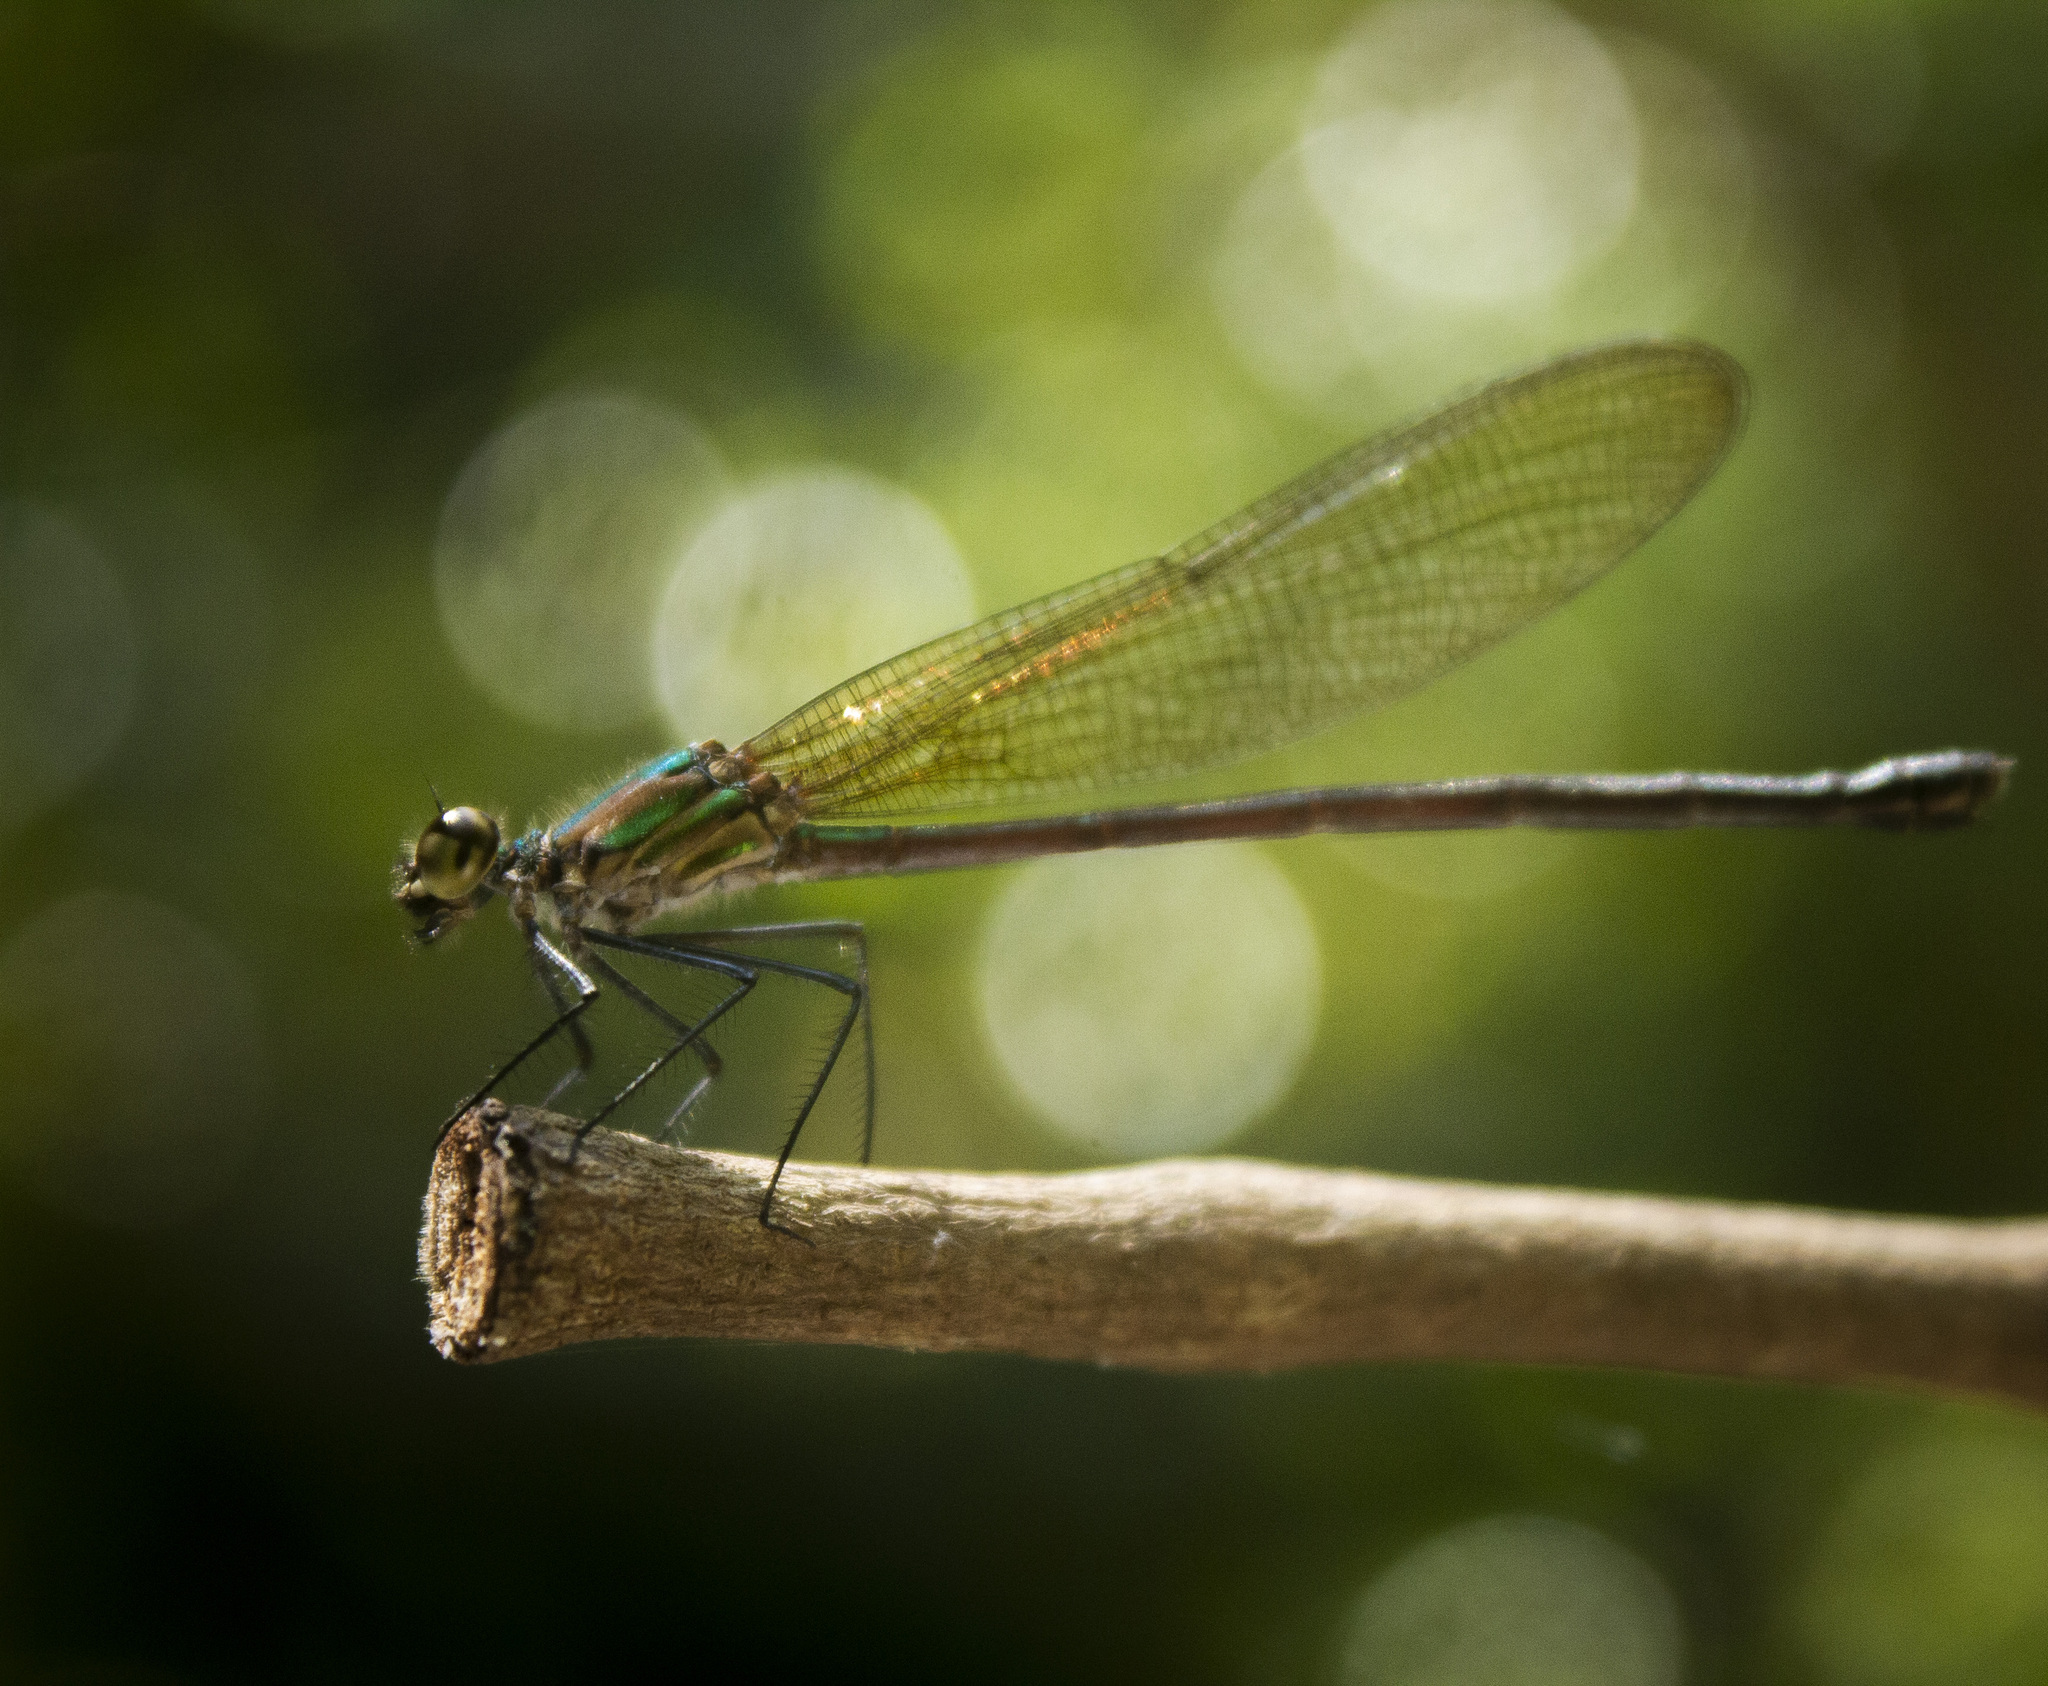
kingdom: Animalia
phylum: Arthropoda
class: Insecta
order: Odonata
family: Calopterygidae
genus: Hetaerina
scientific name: Hetaerina occisa
